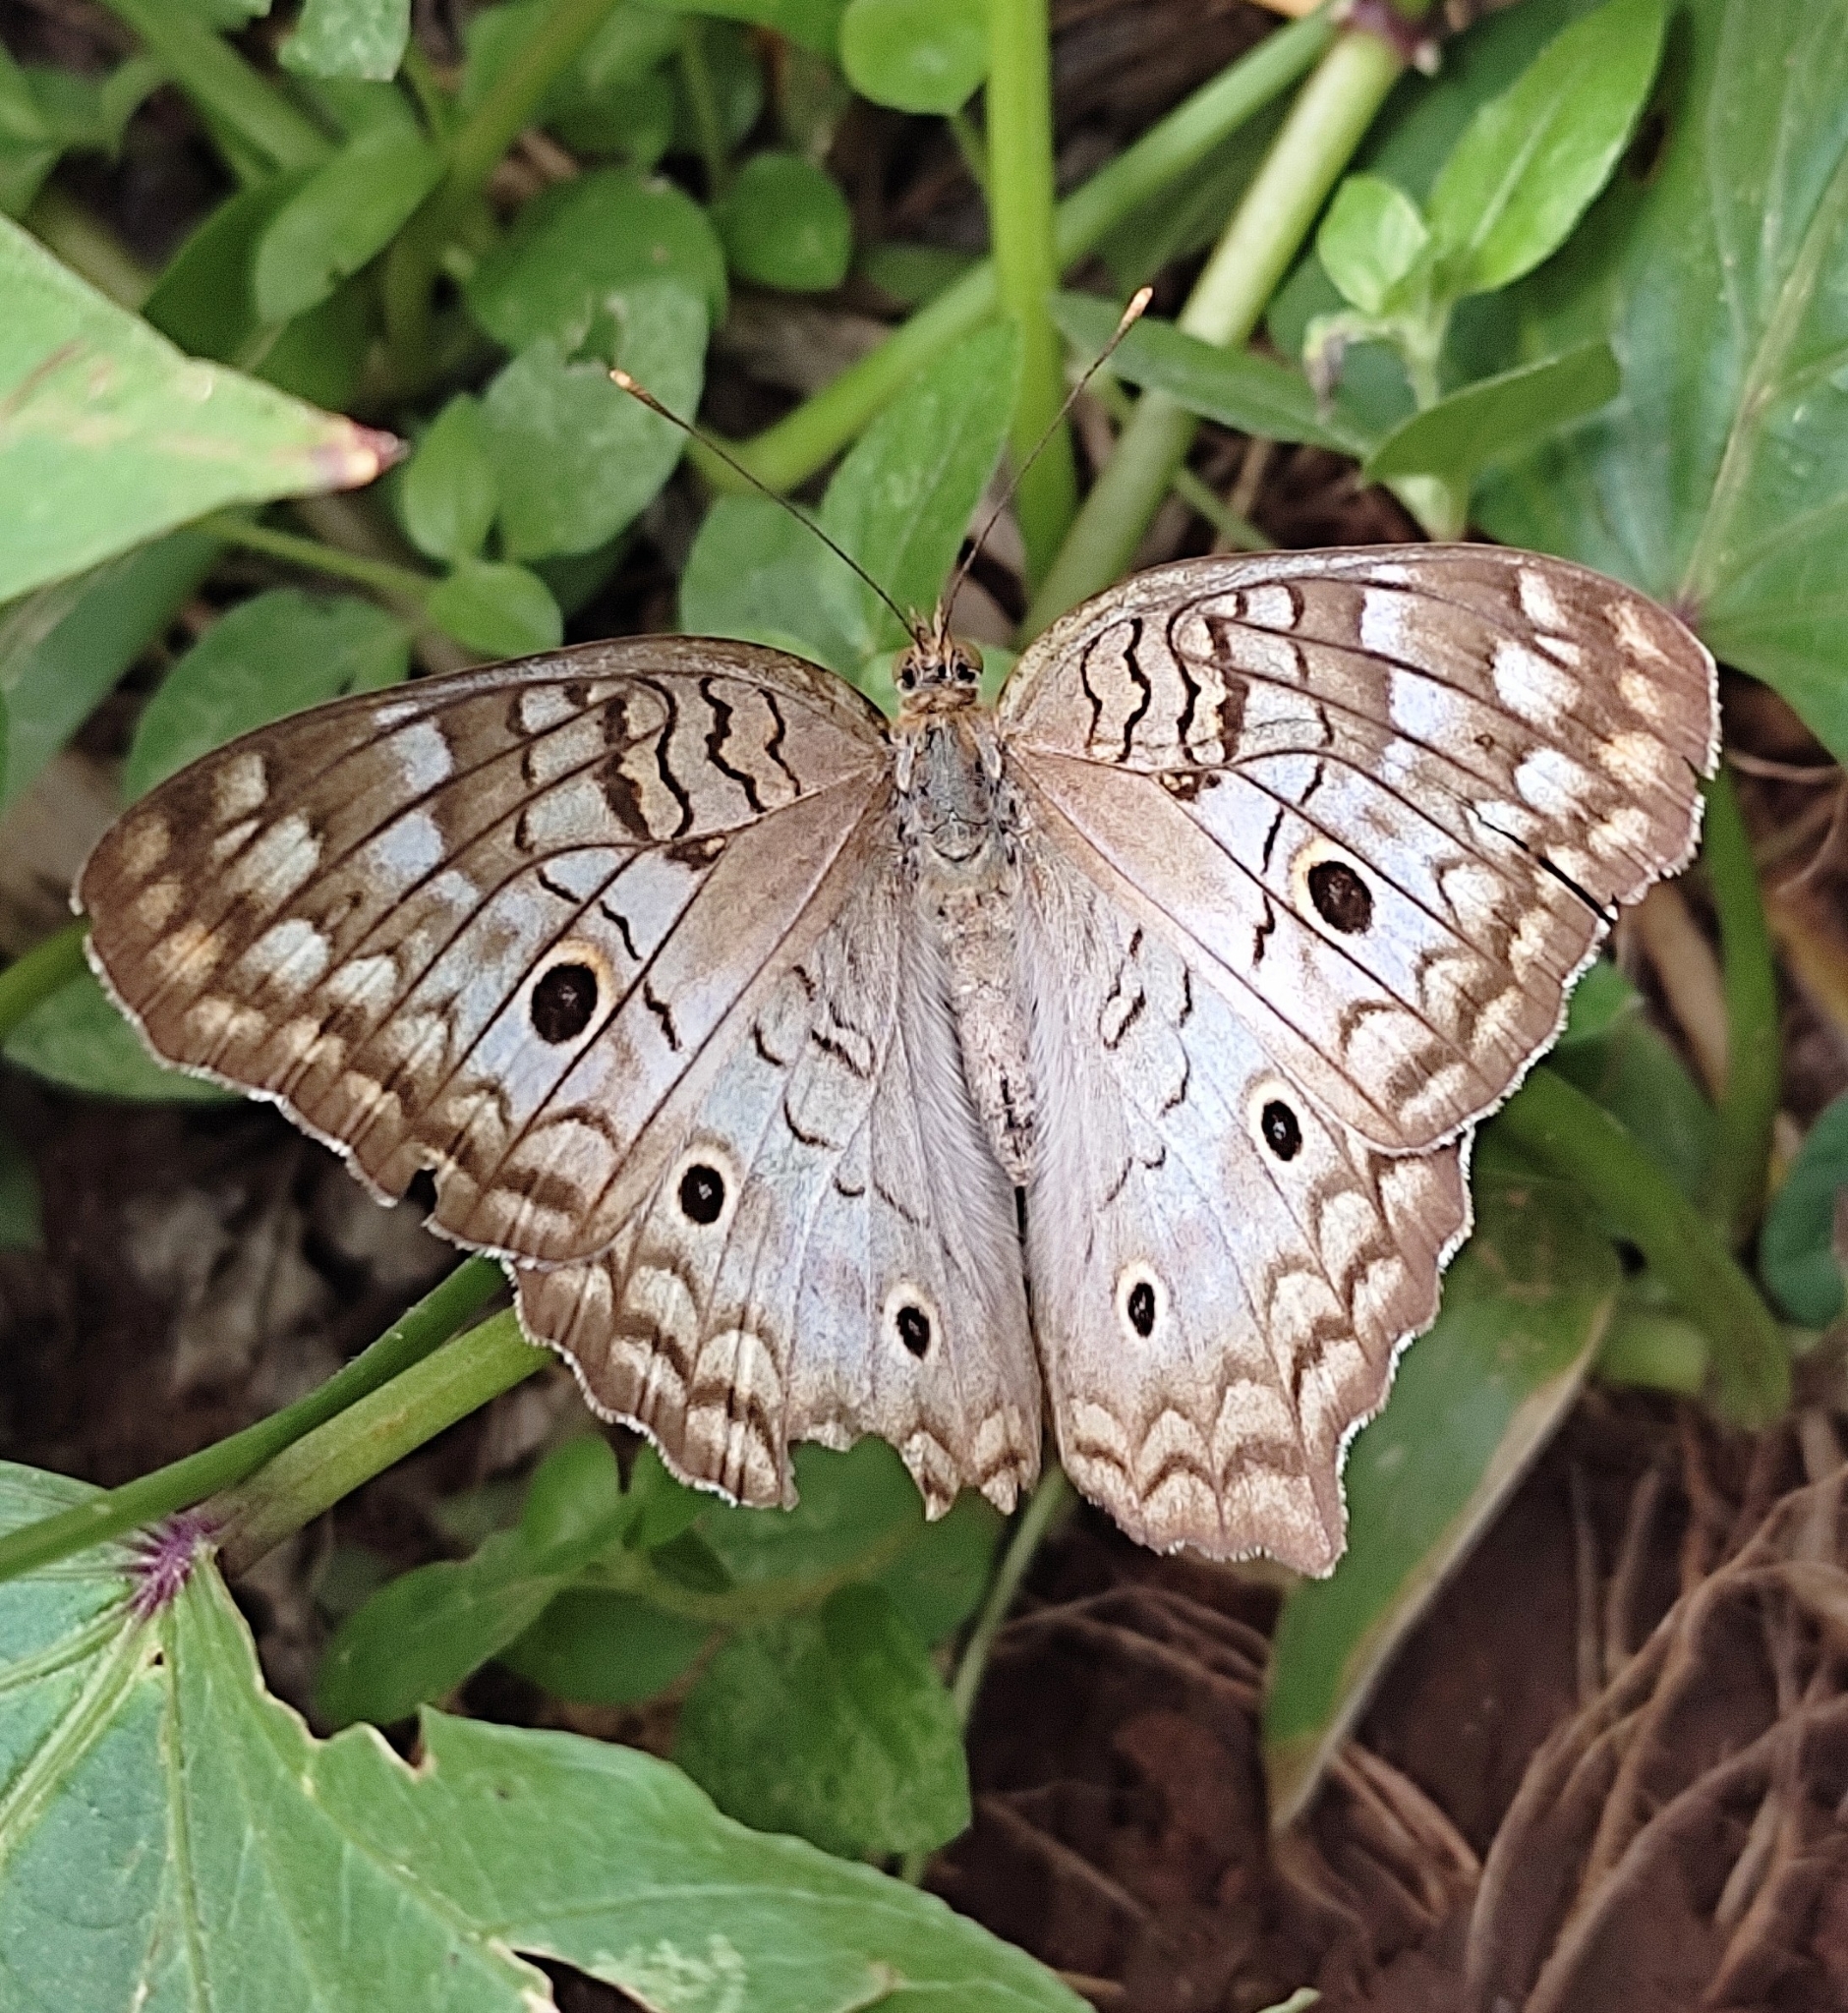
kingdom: Animalia
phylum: Arthropoda
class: Insecta
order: Lepidoptera
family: Nymphalidae
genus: Anartia
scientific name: Anartia jatrophae
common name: White peacock
